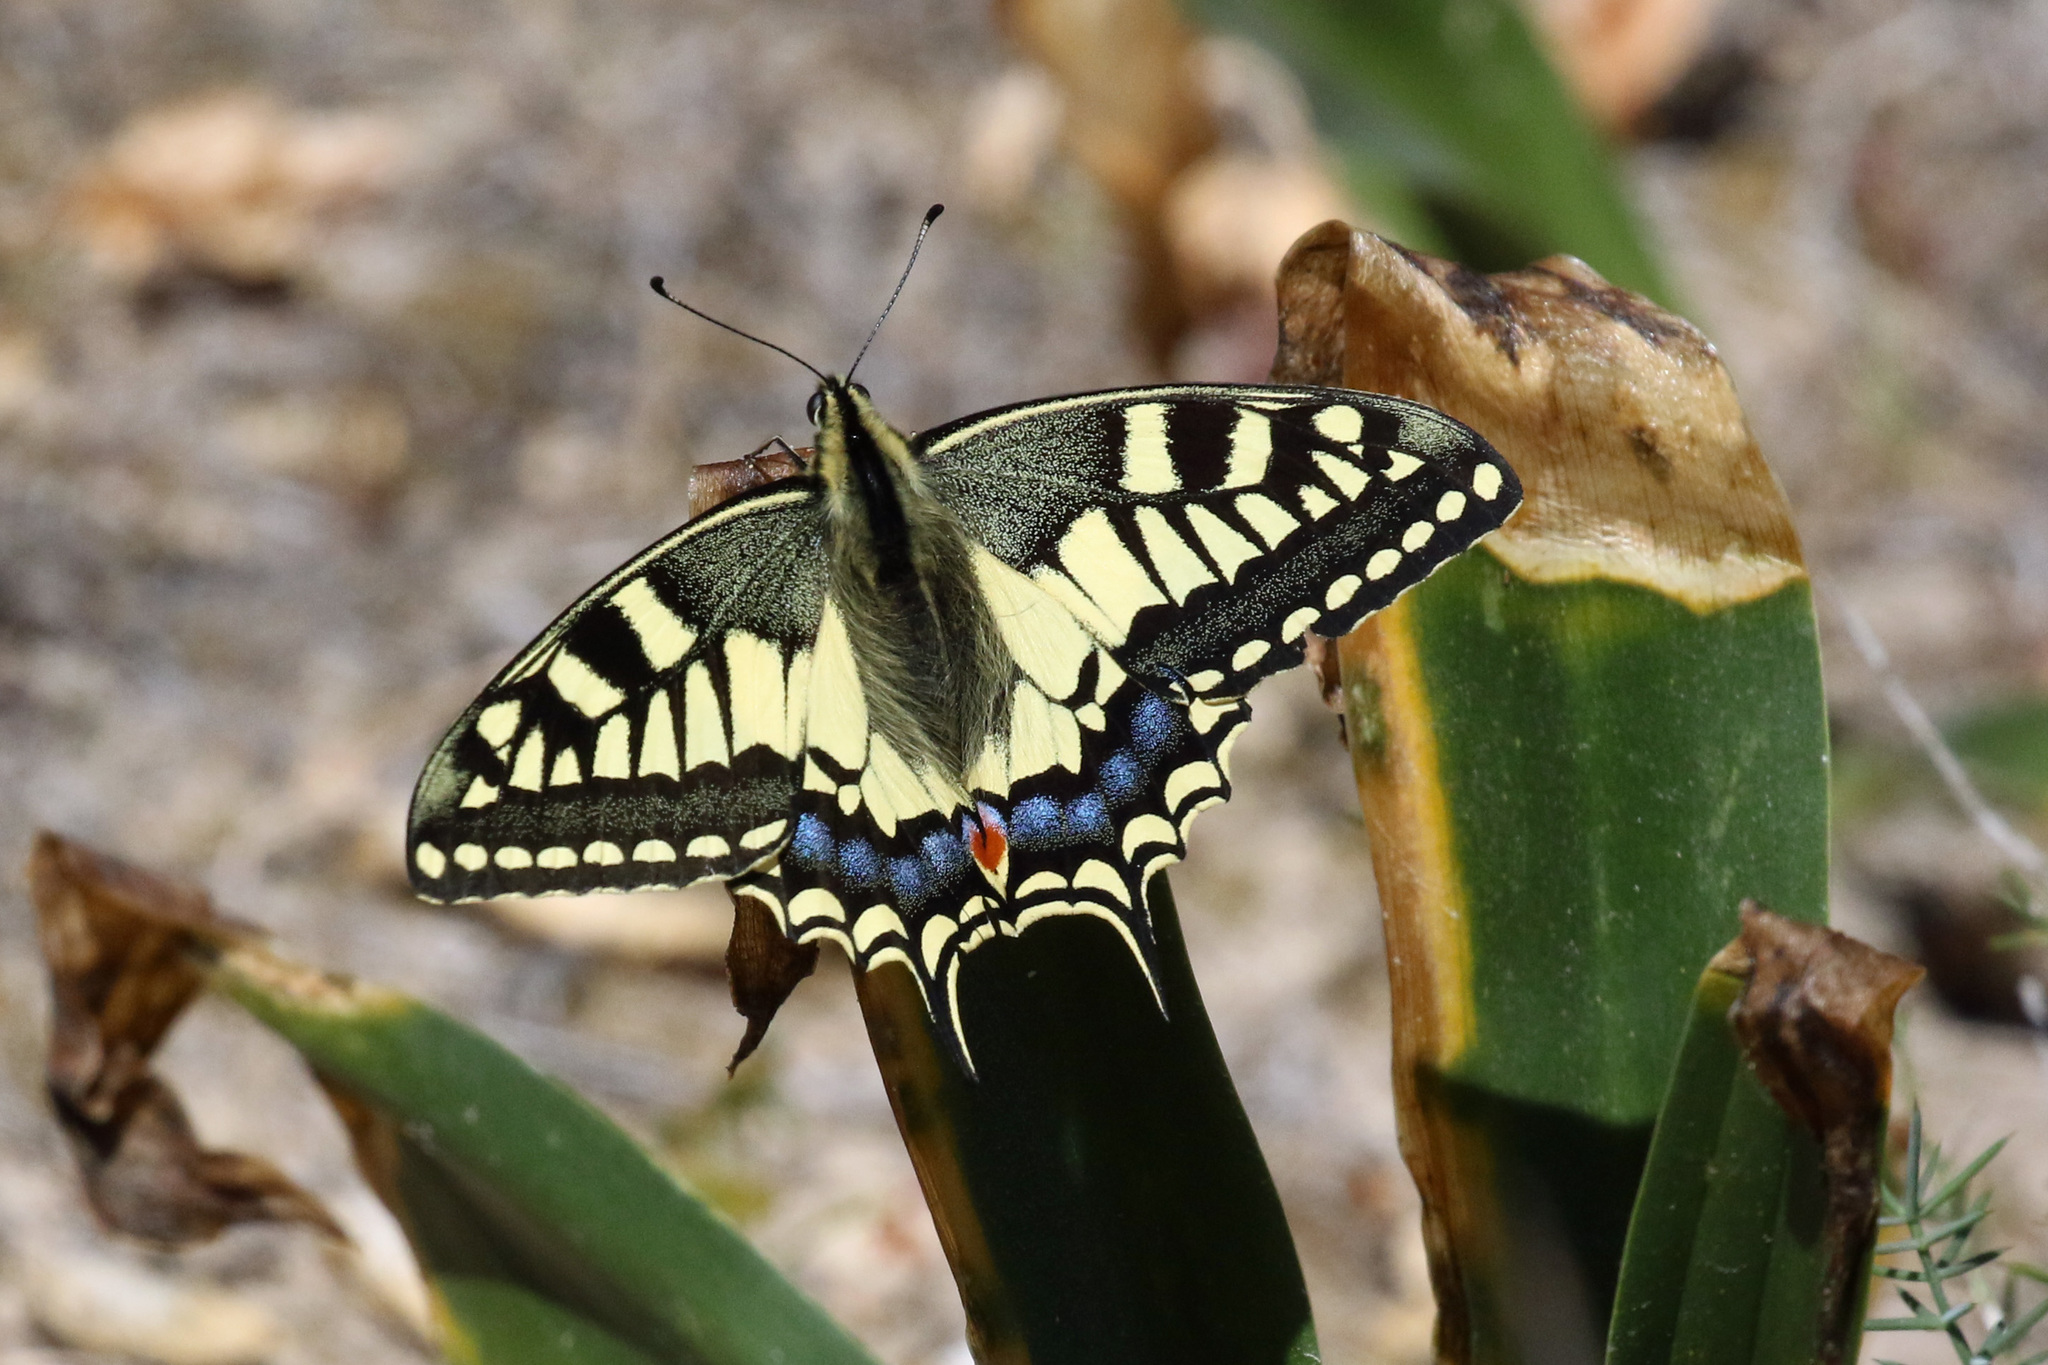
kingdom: Animalia
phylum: Arthropoda
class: Insecta
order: Lepidoptera
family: Papilionidae
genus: Papilio
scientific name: Papilio machaon
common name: Swallowtail
